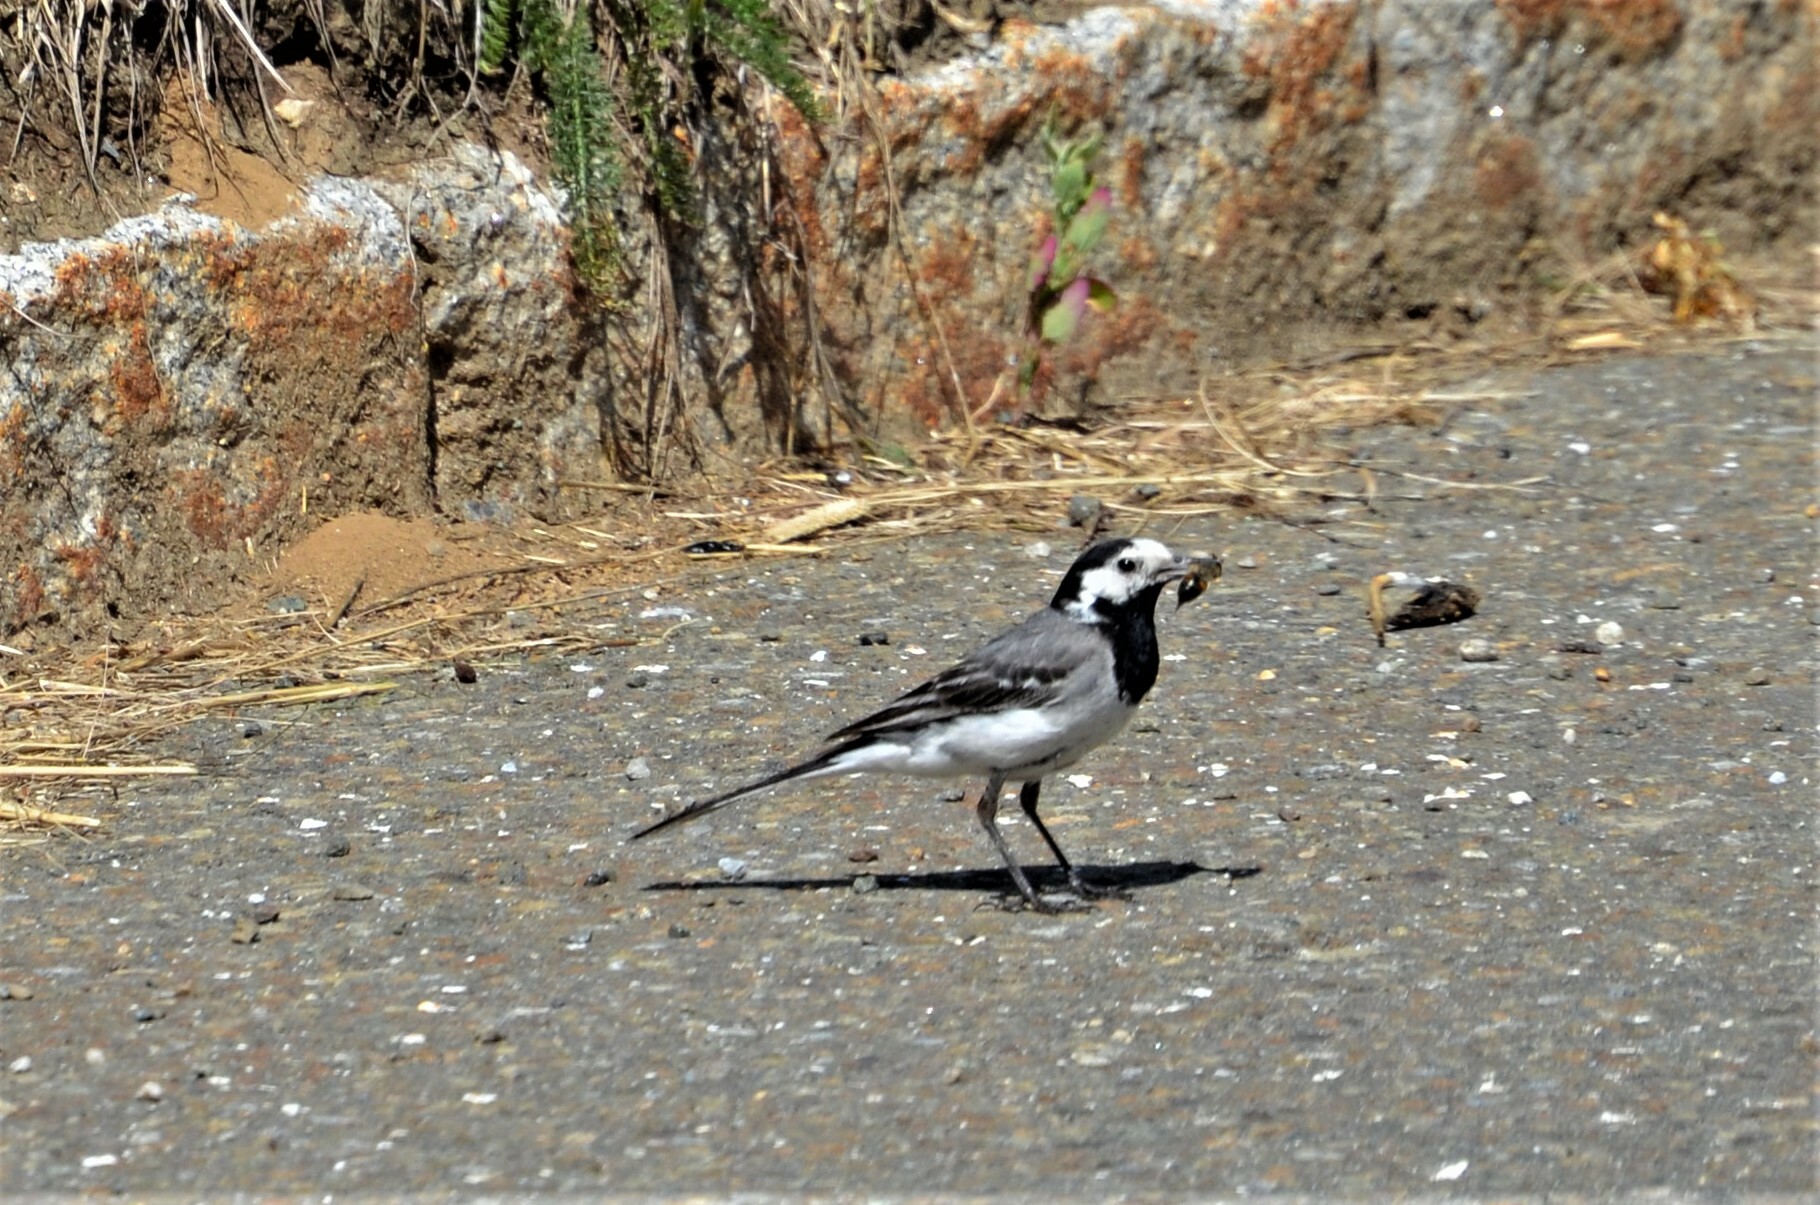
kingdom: Animalia
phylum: Chordata
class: Aves
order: Passeriformes
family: Motacillidae
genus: Motacilla
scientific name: Motacilla alba
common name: White wagtail
